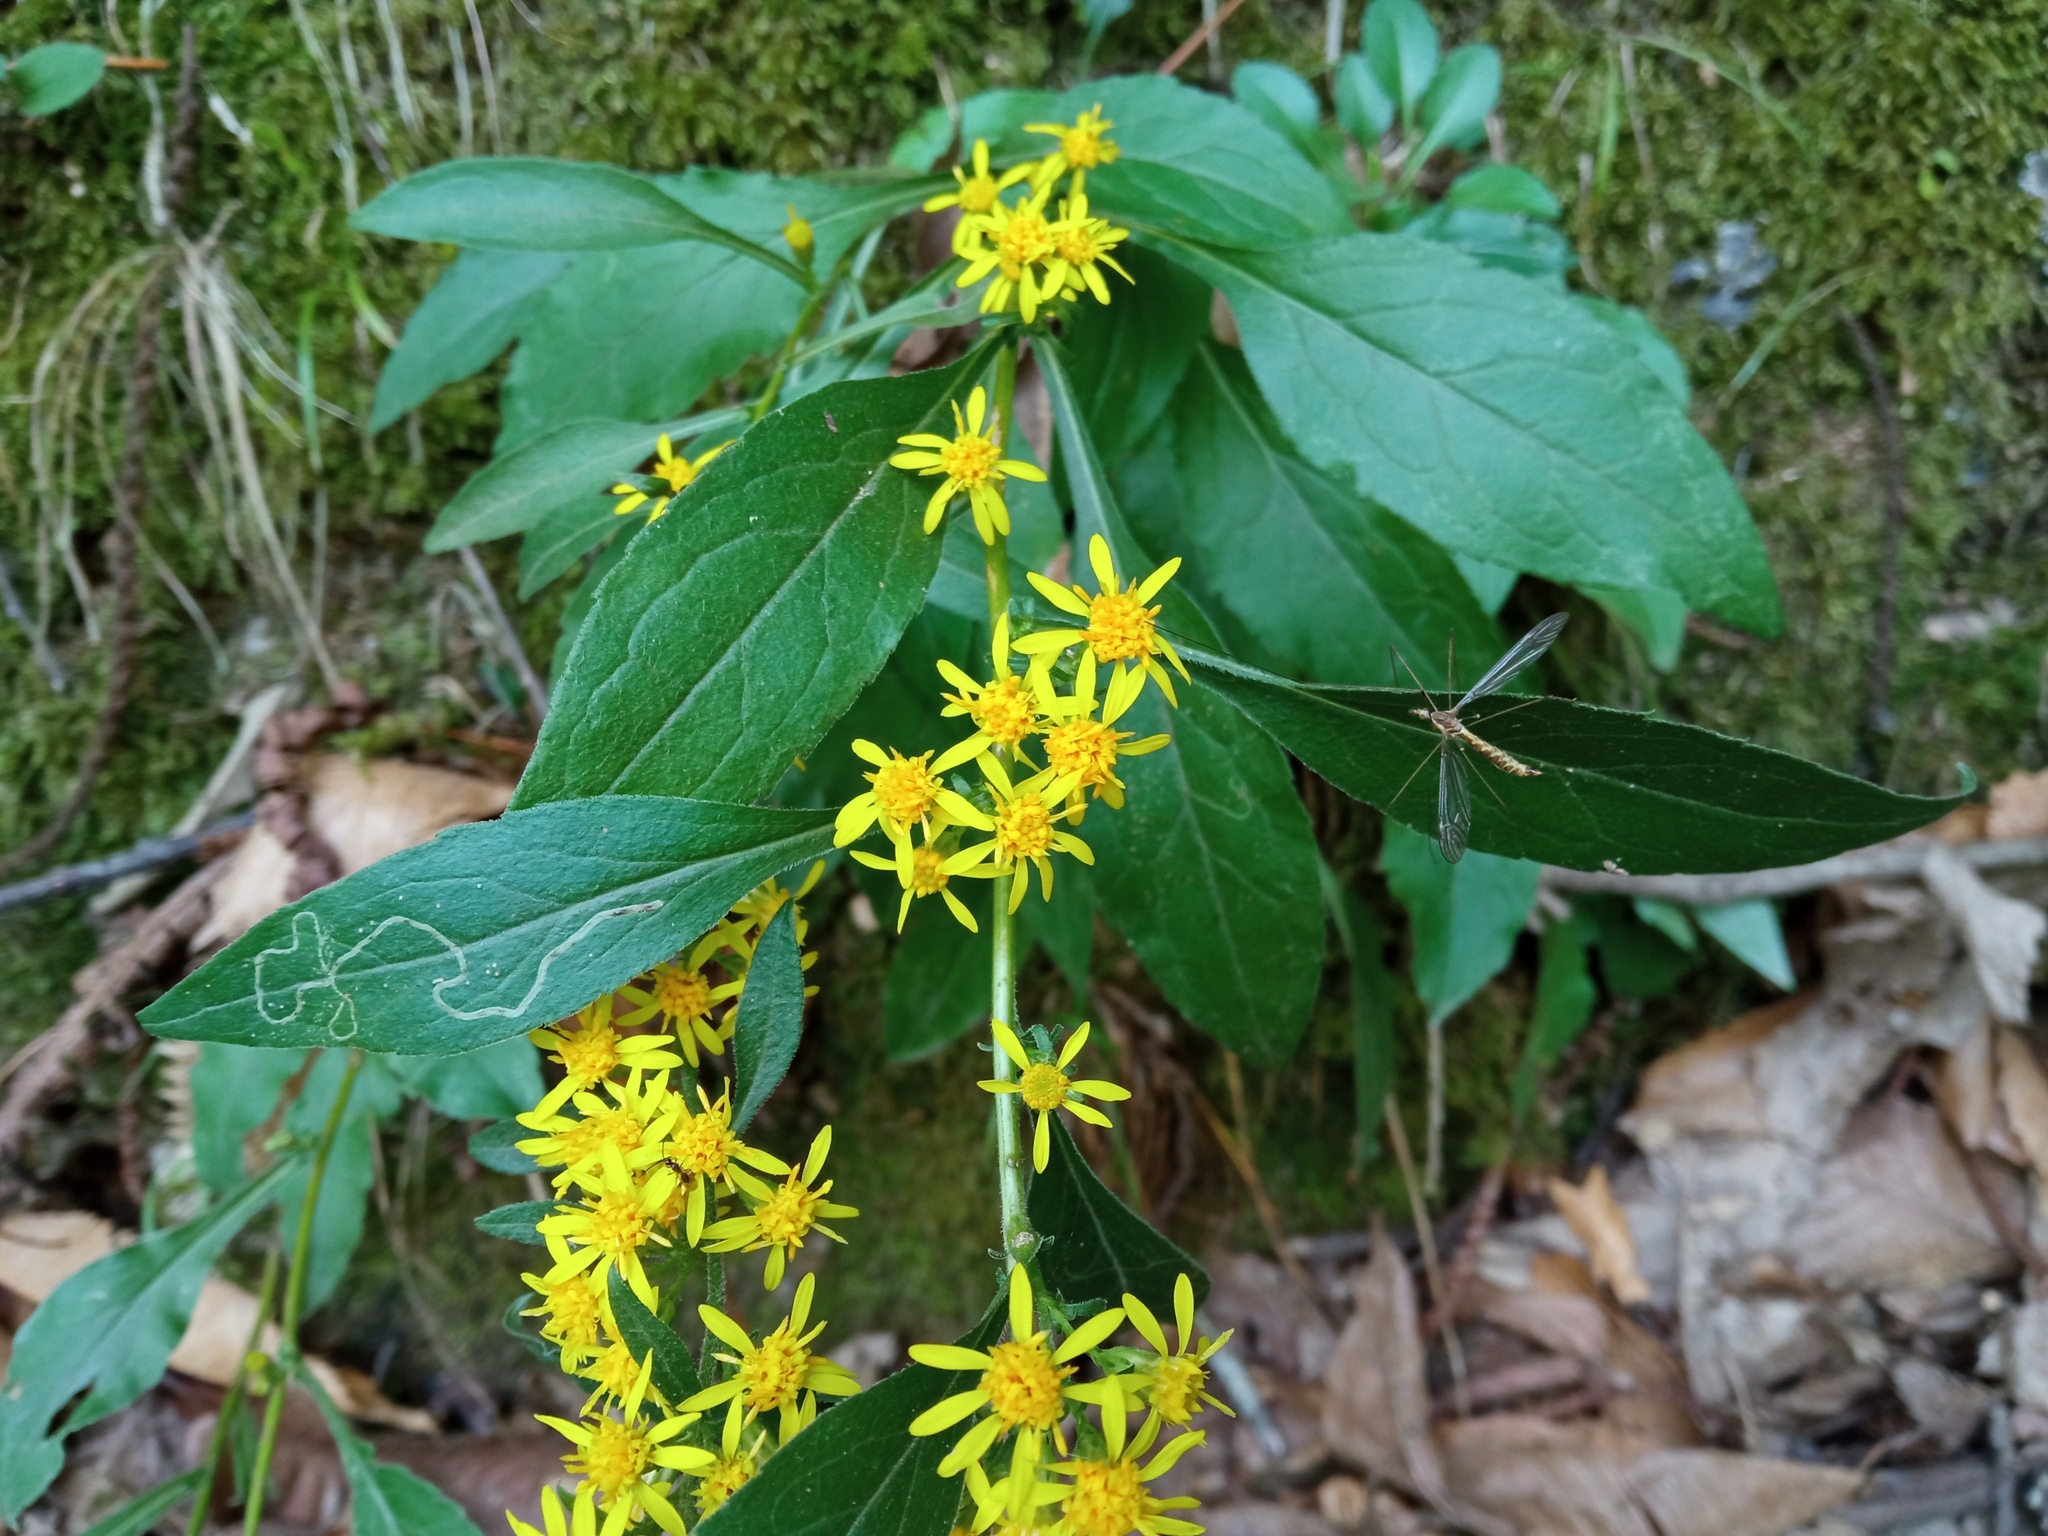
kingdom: Plantae
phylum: Tracheophyta
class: Magnoliopsida
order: Asterales
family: Asteraceae
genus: Solidago
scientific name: Solidago virgaurea
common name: Goldenrod
